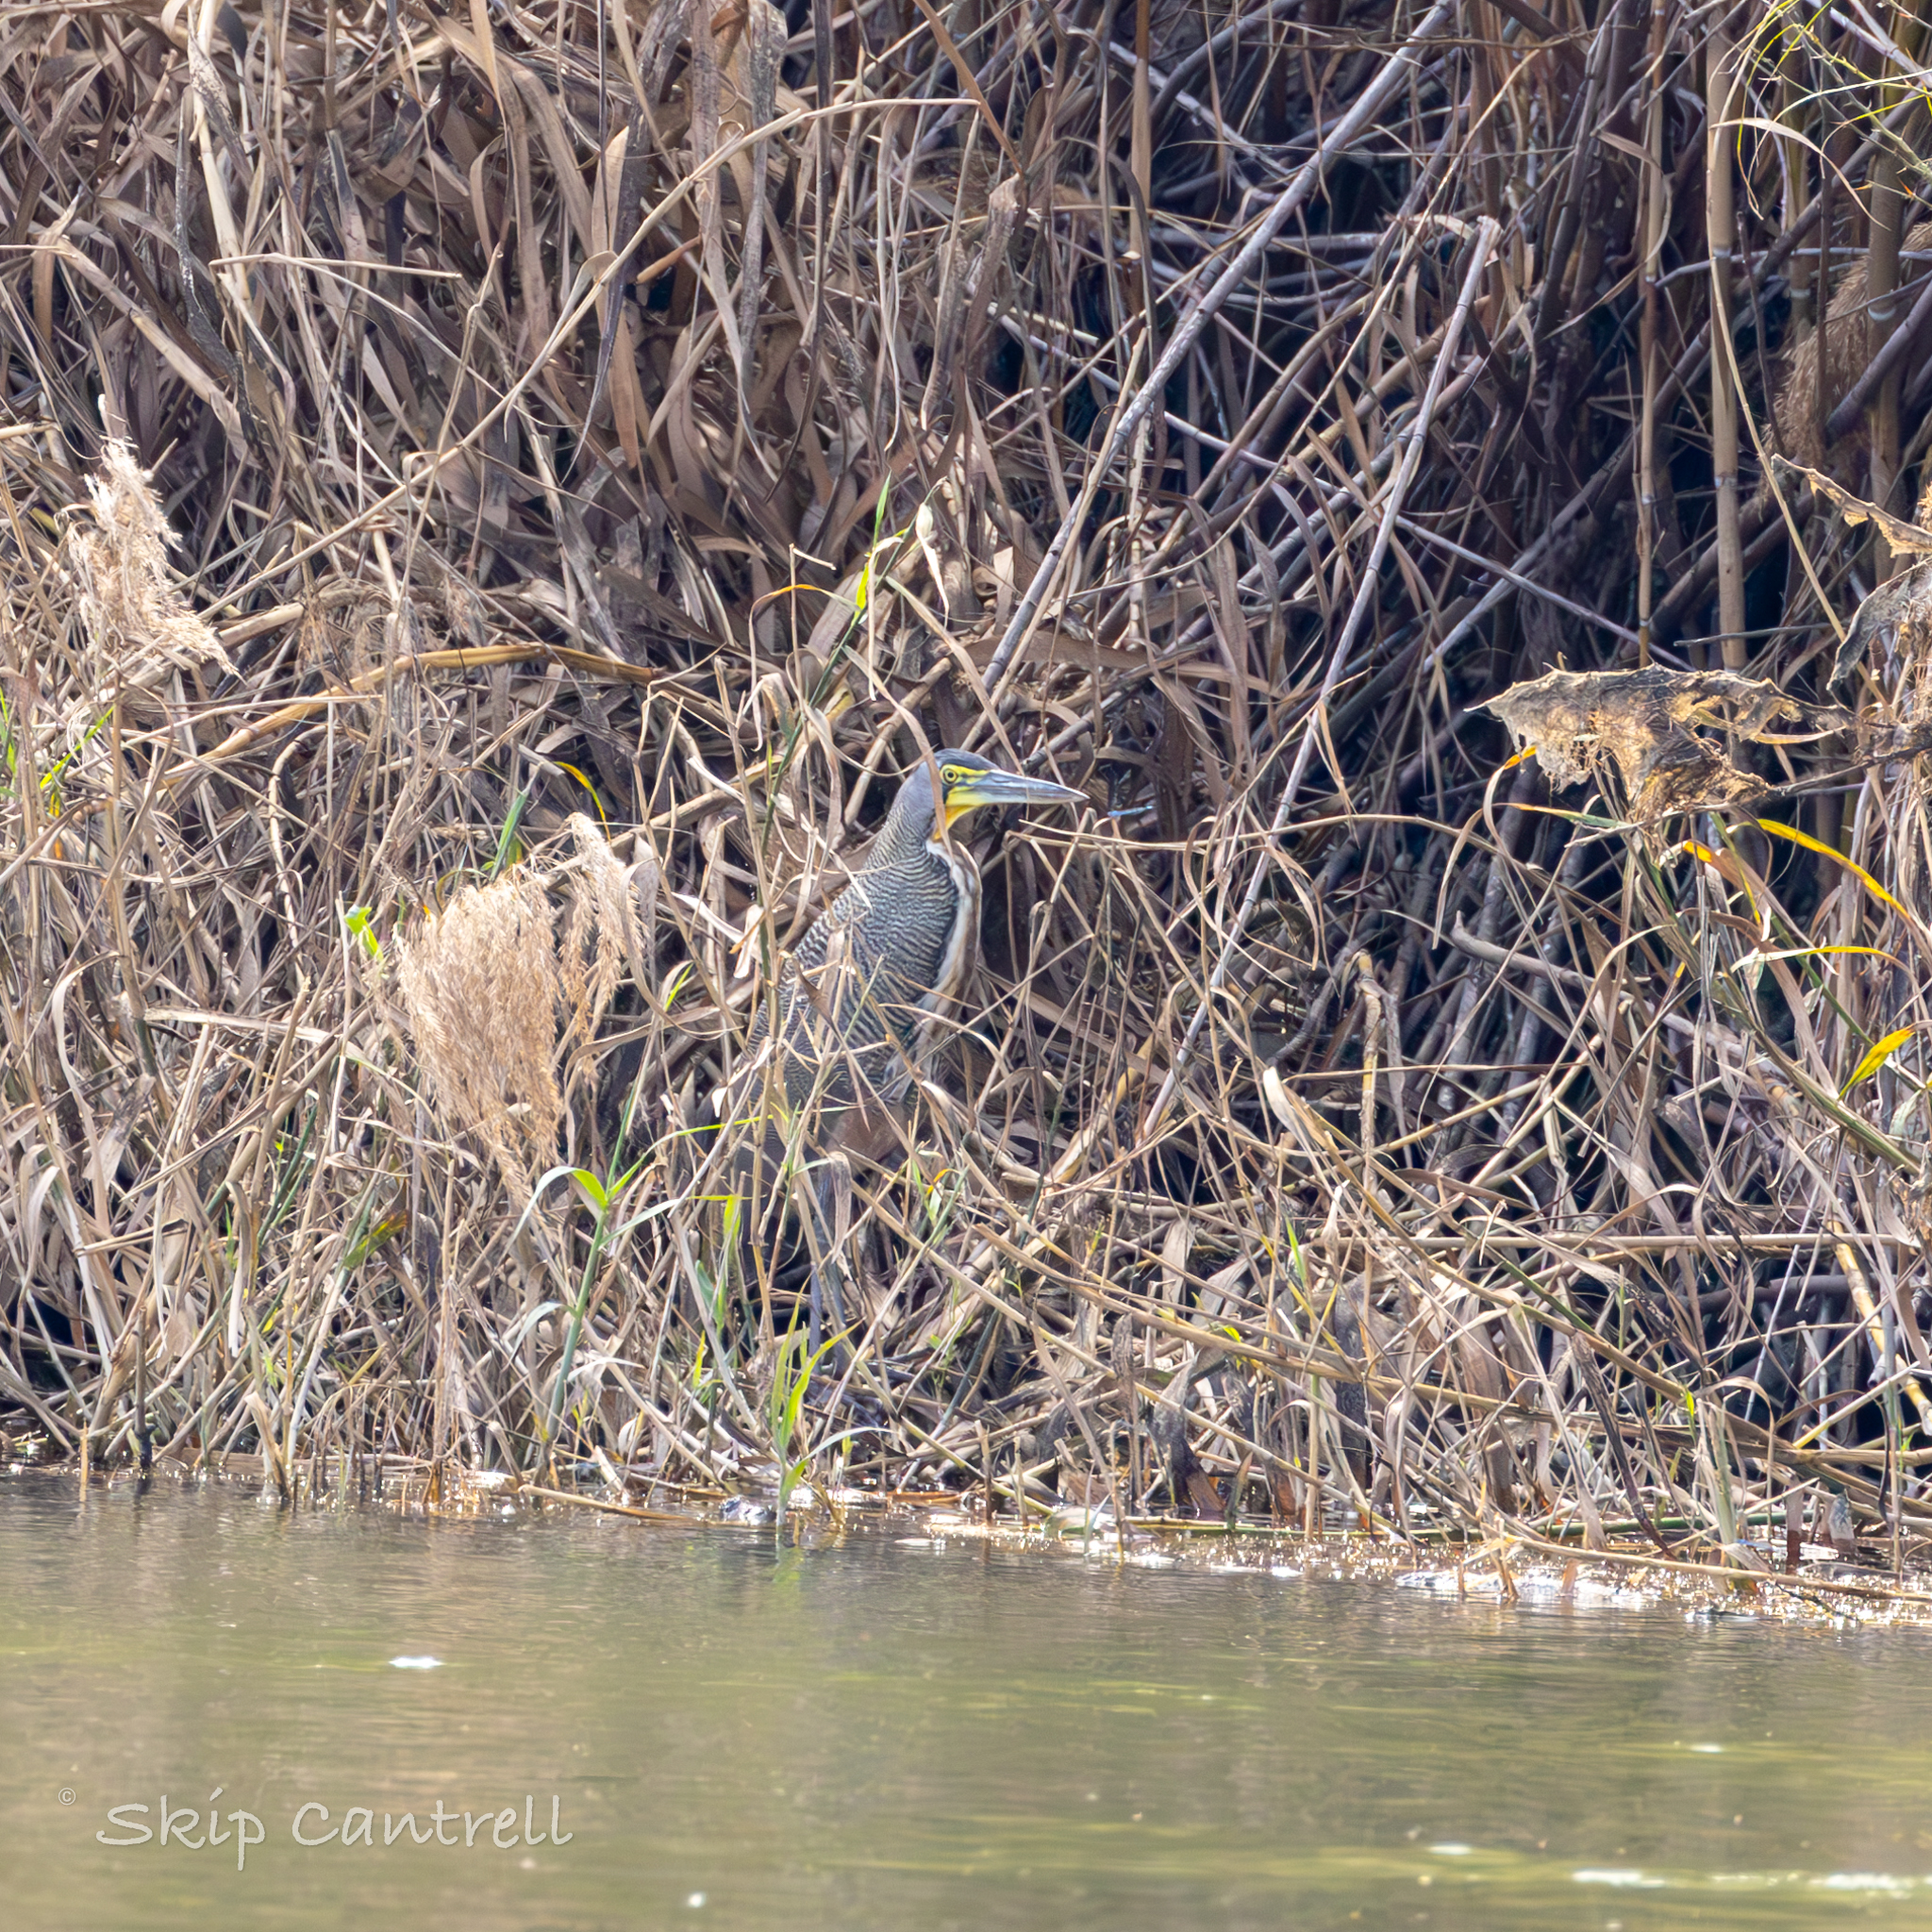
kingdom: Animalia
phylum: Chordata
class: Aves
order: Pelecaniformes
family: Ardeidae
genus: Tigrisoma
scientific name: Tigrisoma mexicanum
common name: Bare-throated tiger-heron
